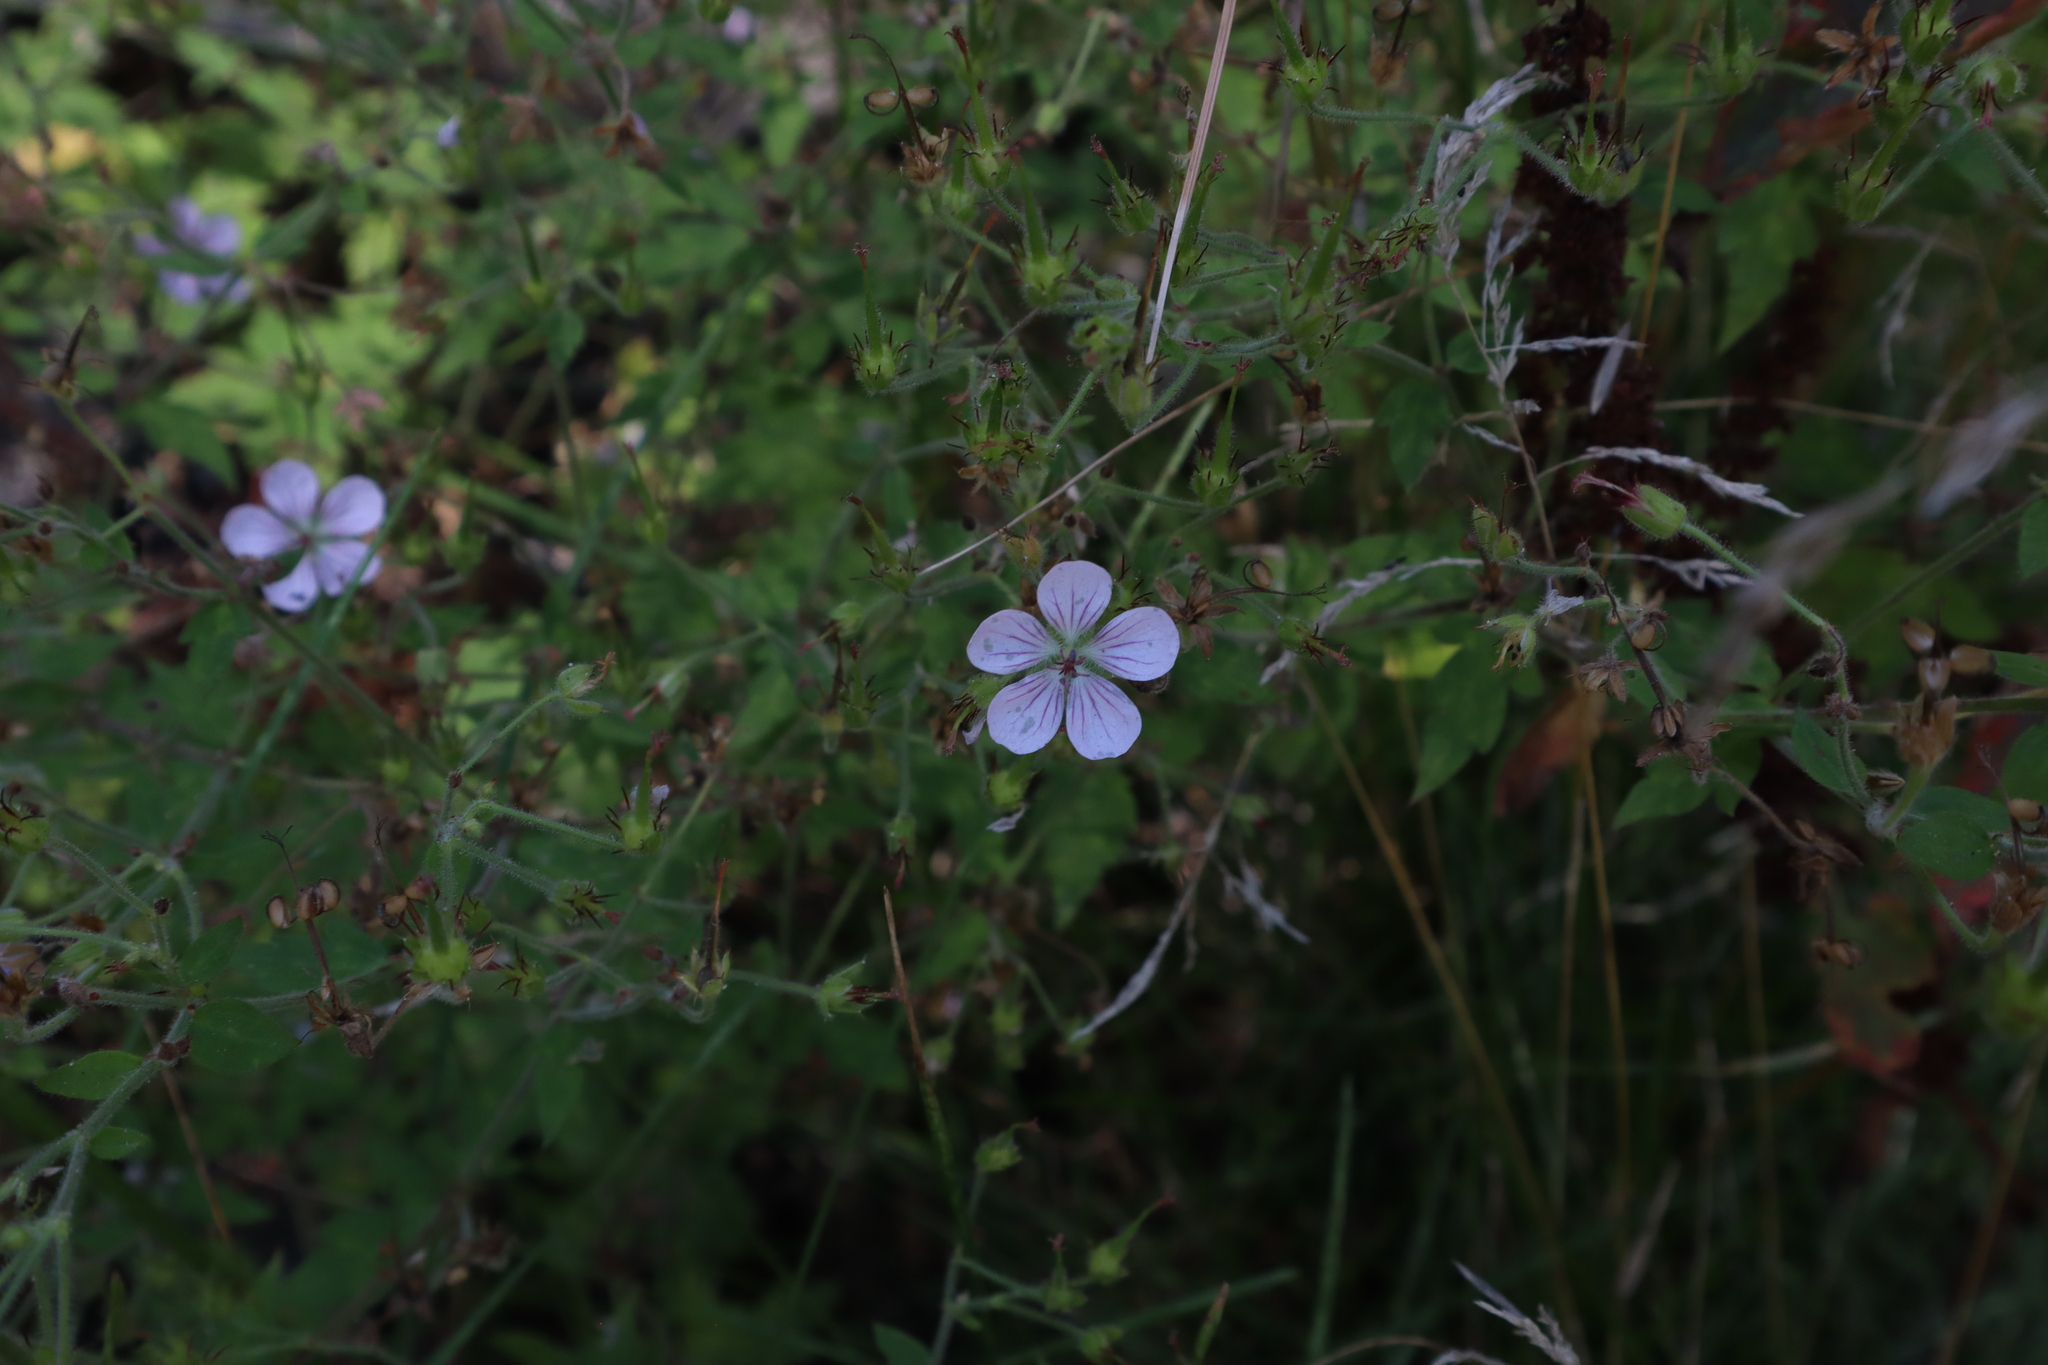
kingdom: Plantae
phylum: Tracheophyta
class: Magnoliopsida
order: Geraniales
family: Geraniaceae
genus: Geranium
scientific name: Geranium richardsonii
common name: Richardson's crane's-bill
